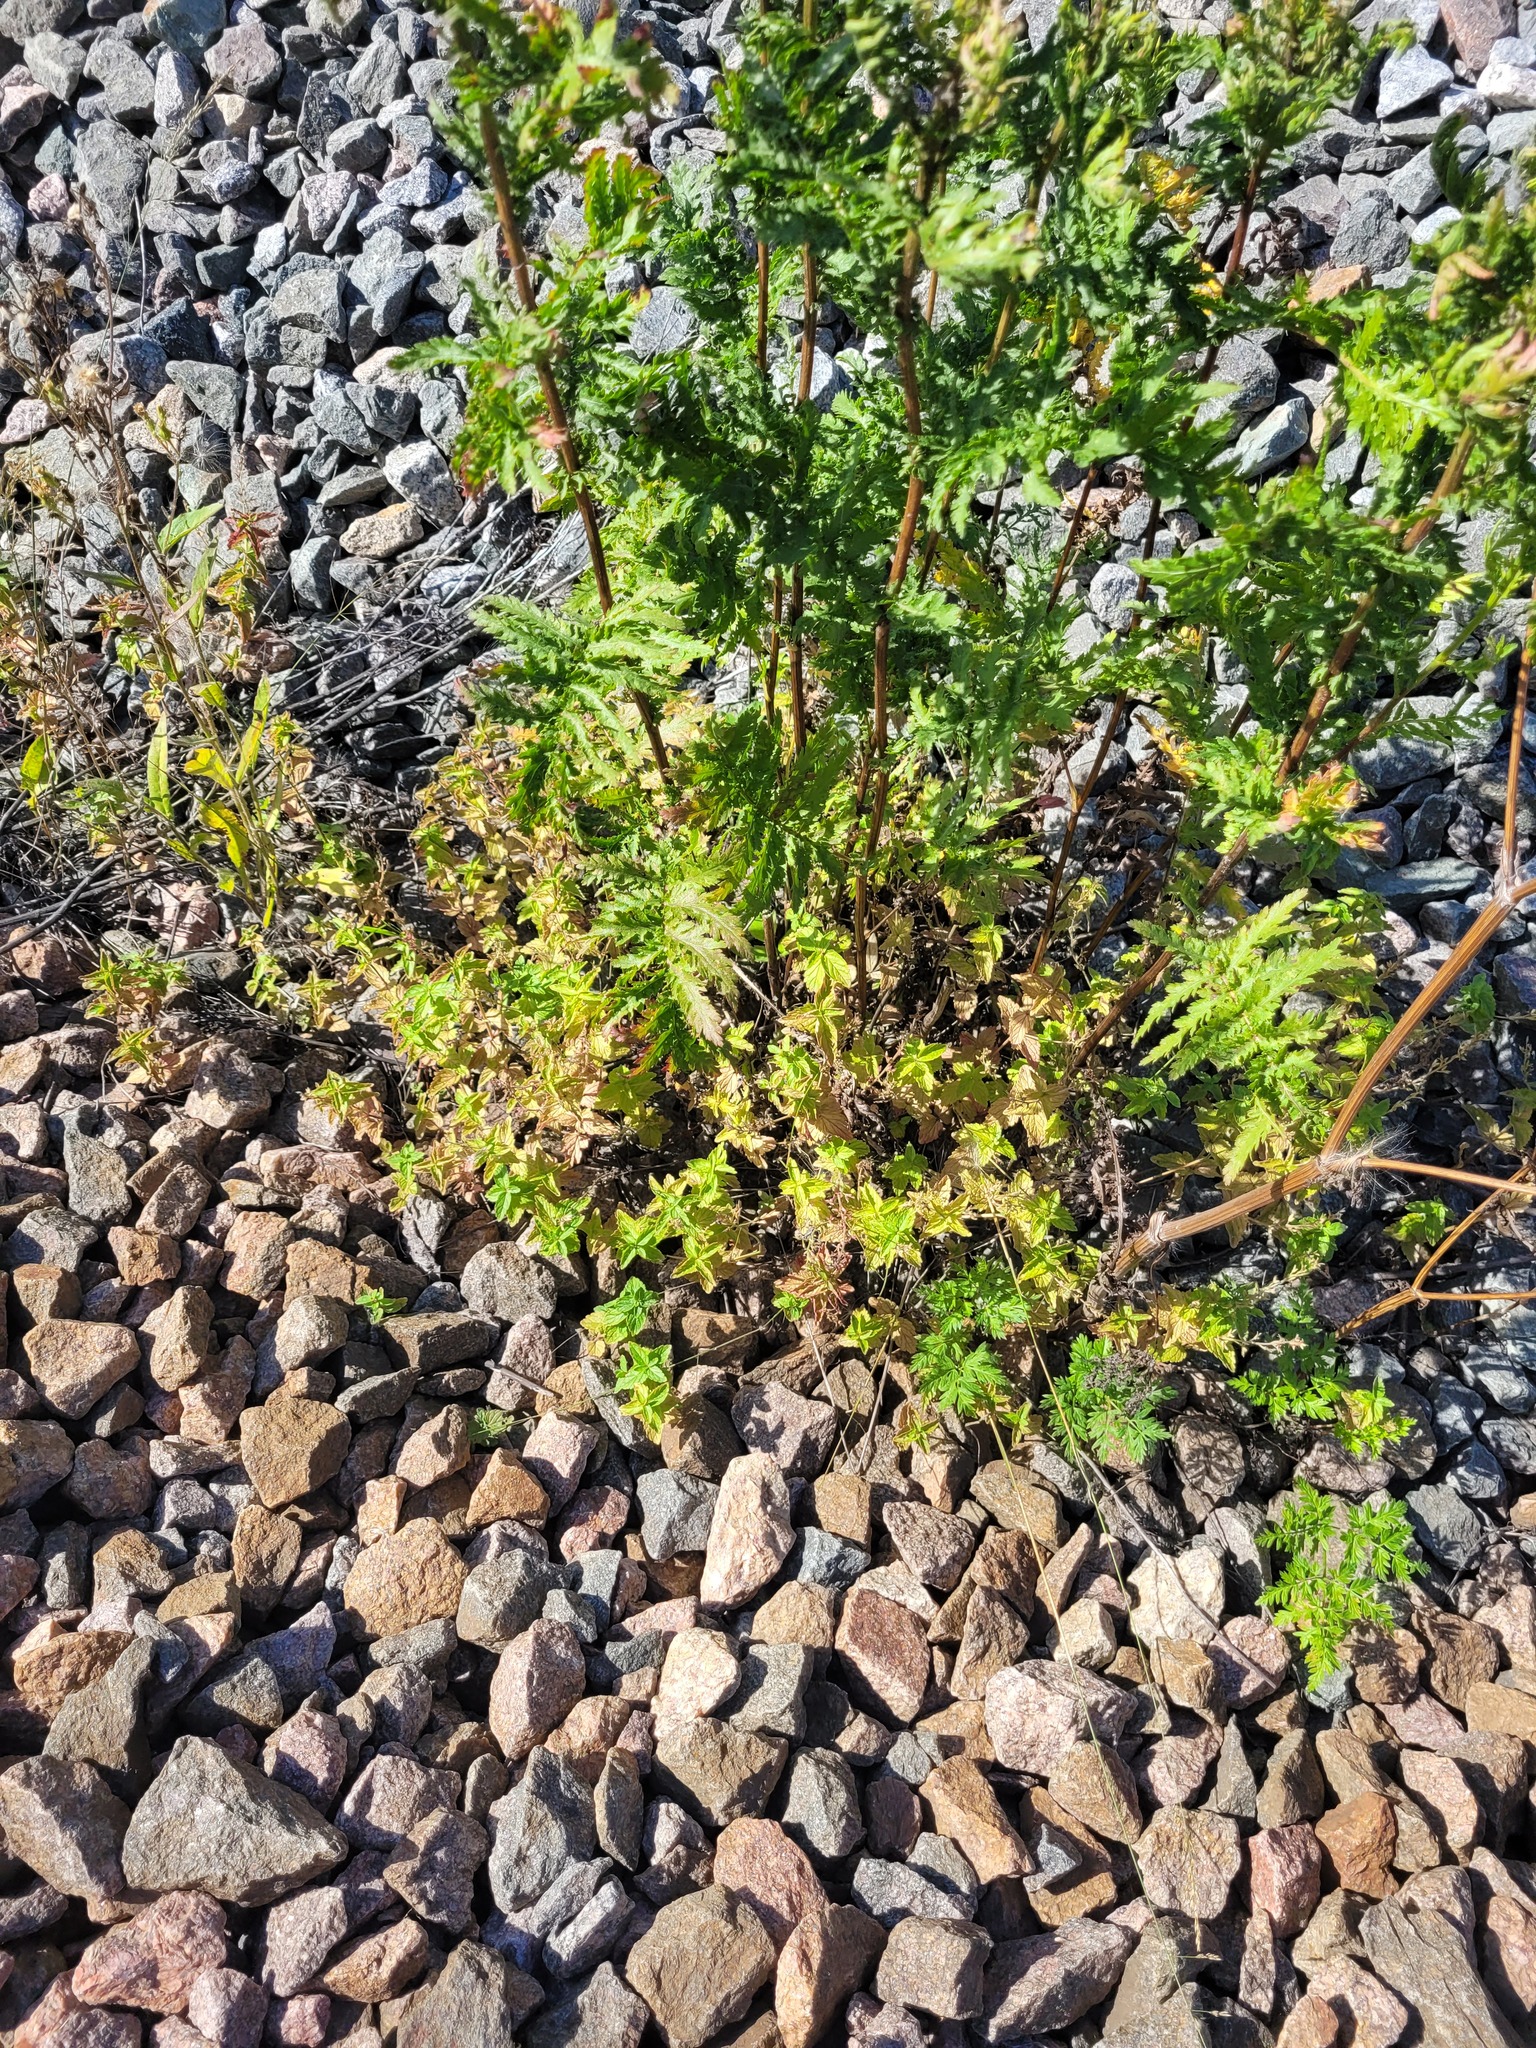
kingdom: Plantae
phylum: Tracheophyta
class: Magnoliopsida
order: Lamiales
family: Plantaginaceae
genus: Veronica
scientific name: Veronica chamaedrys
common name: Germander speedwell
